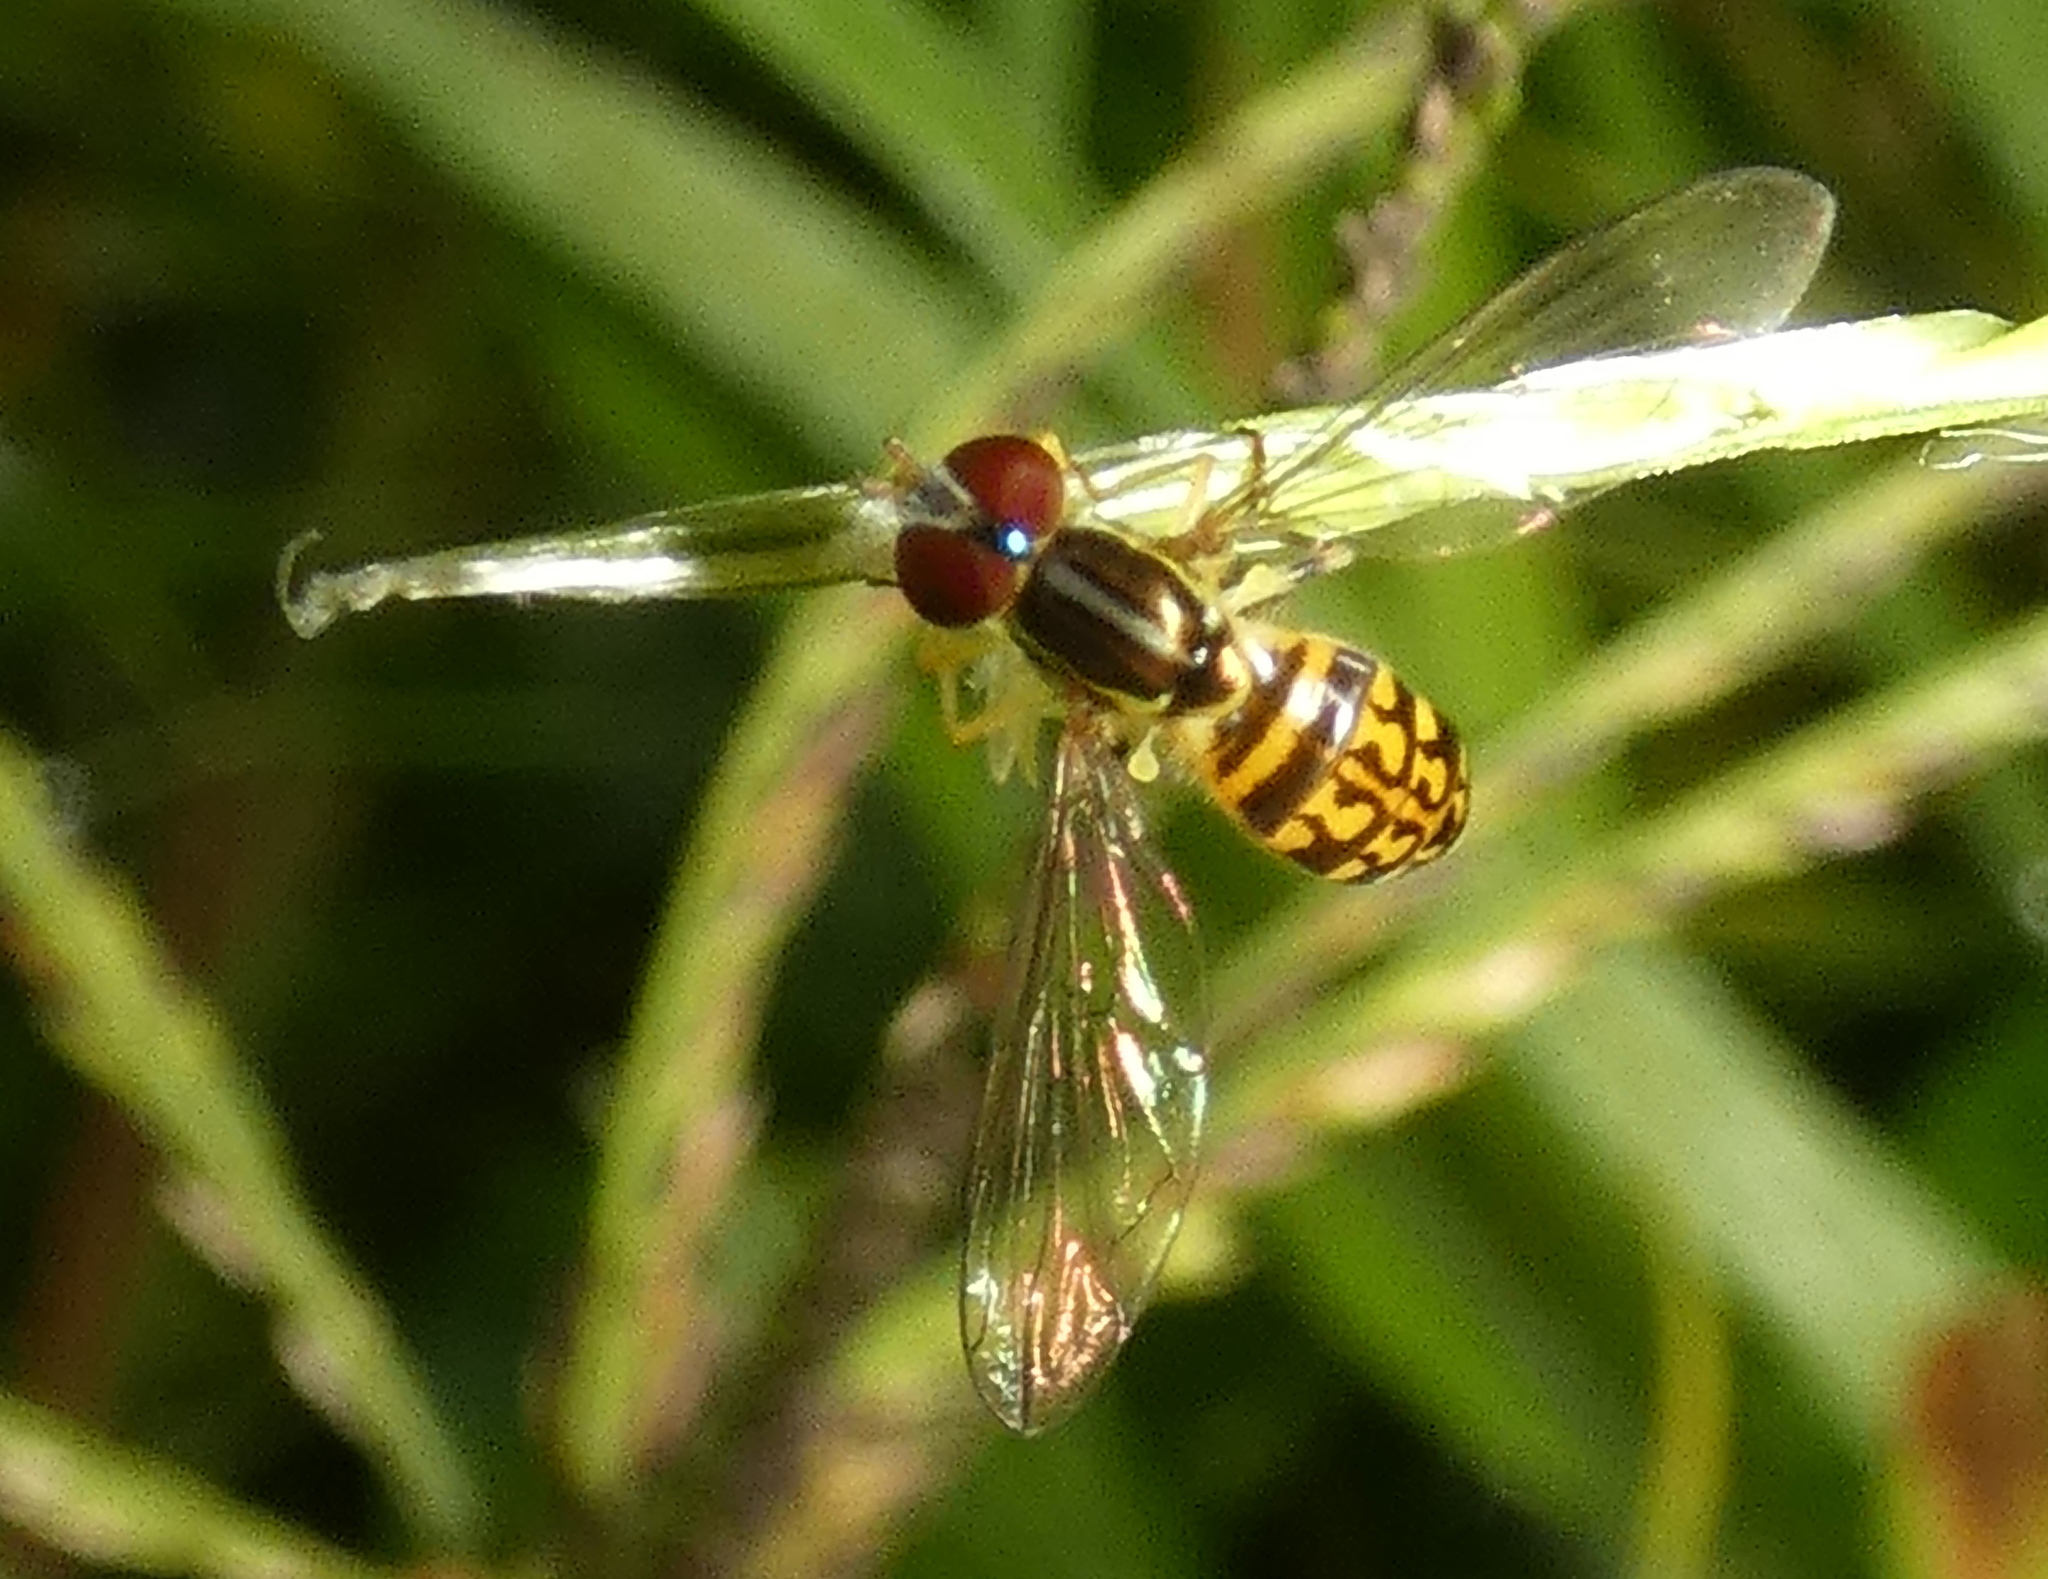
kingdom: Animalia
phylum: Arthropoda
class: Insecta
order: Diptera
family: Syrphidae
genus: Toxomerus
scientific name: Toxomerus pictus
